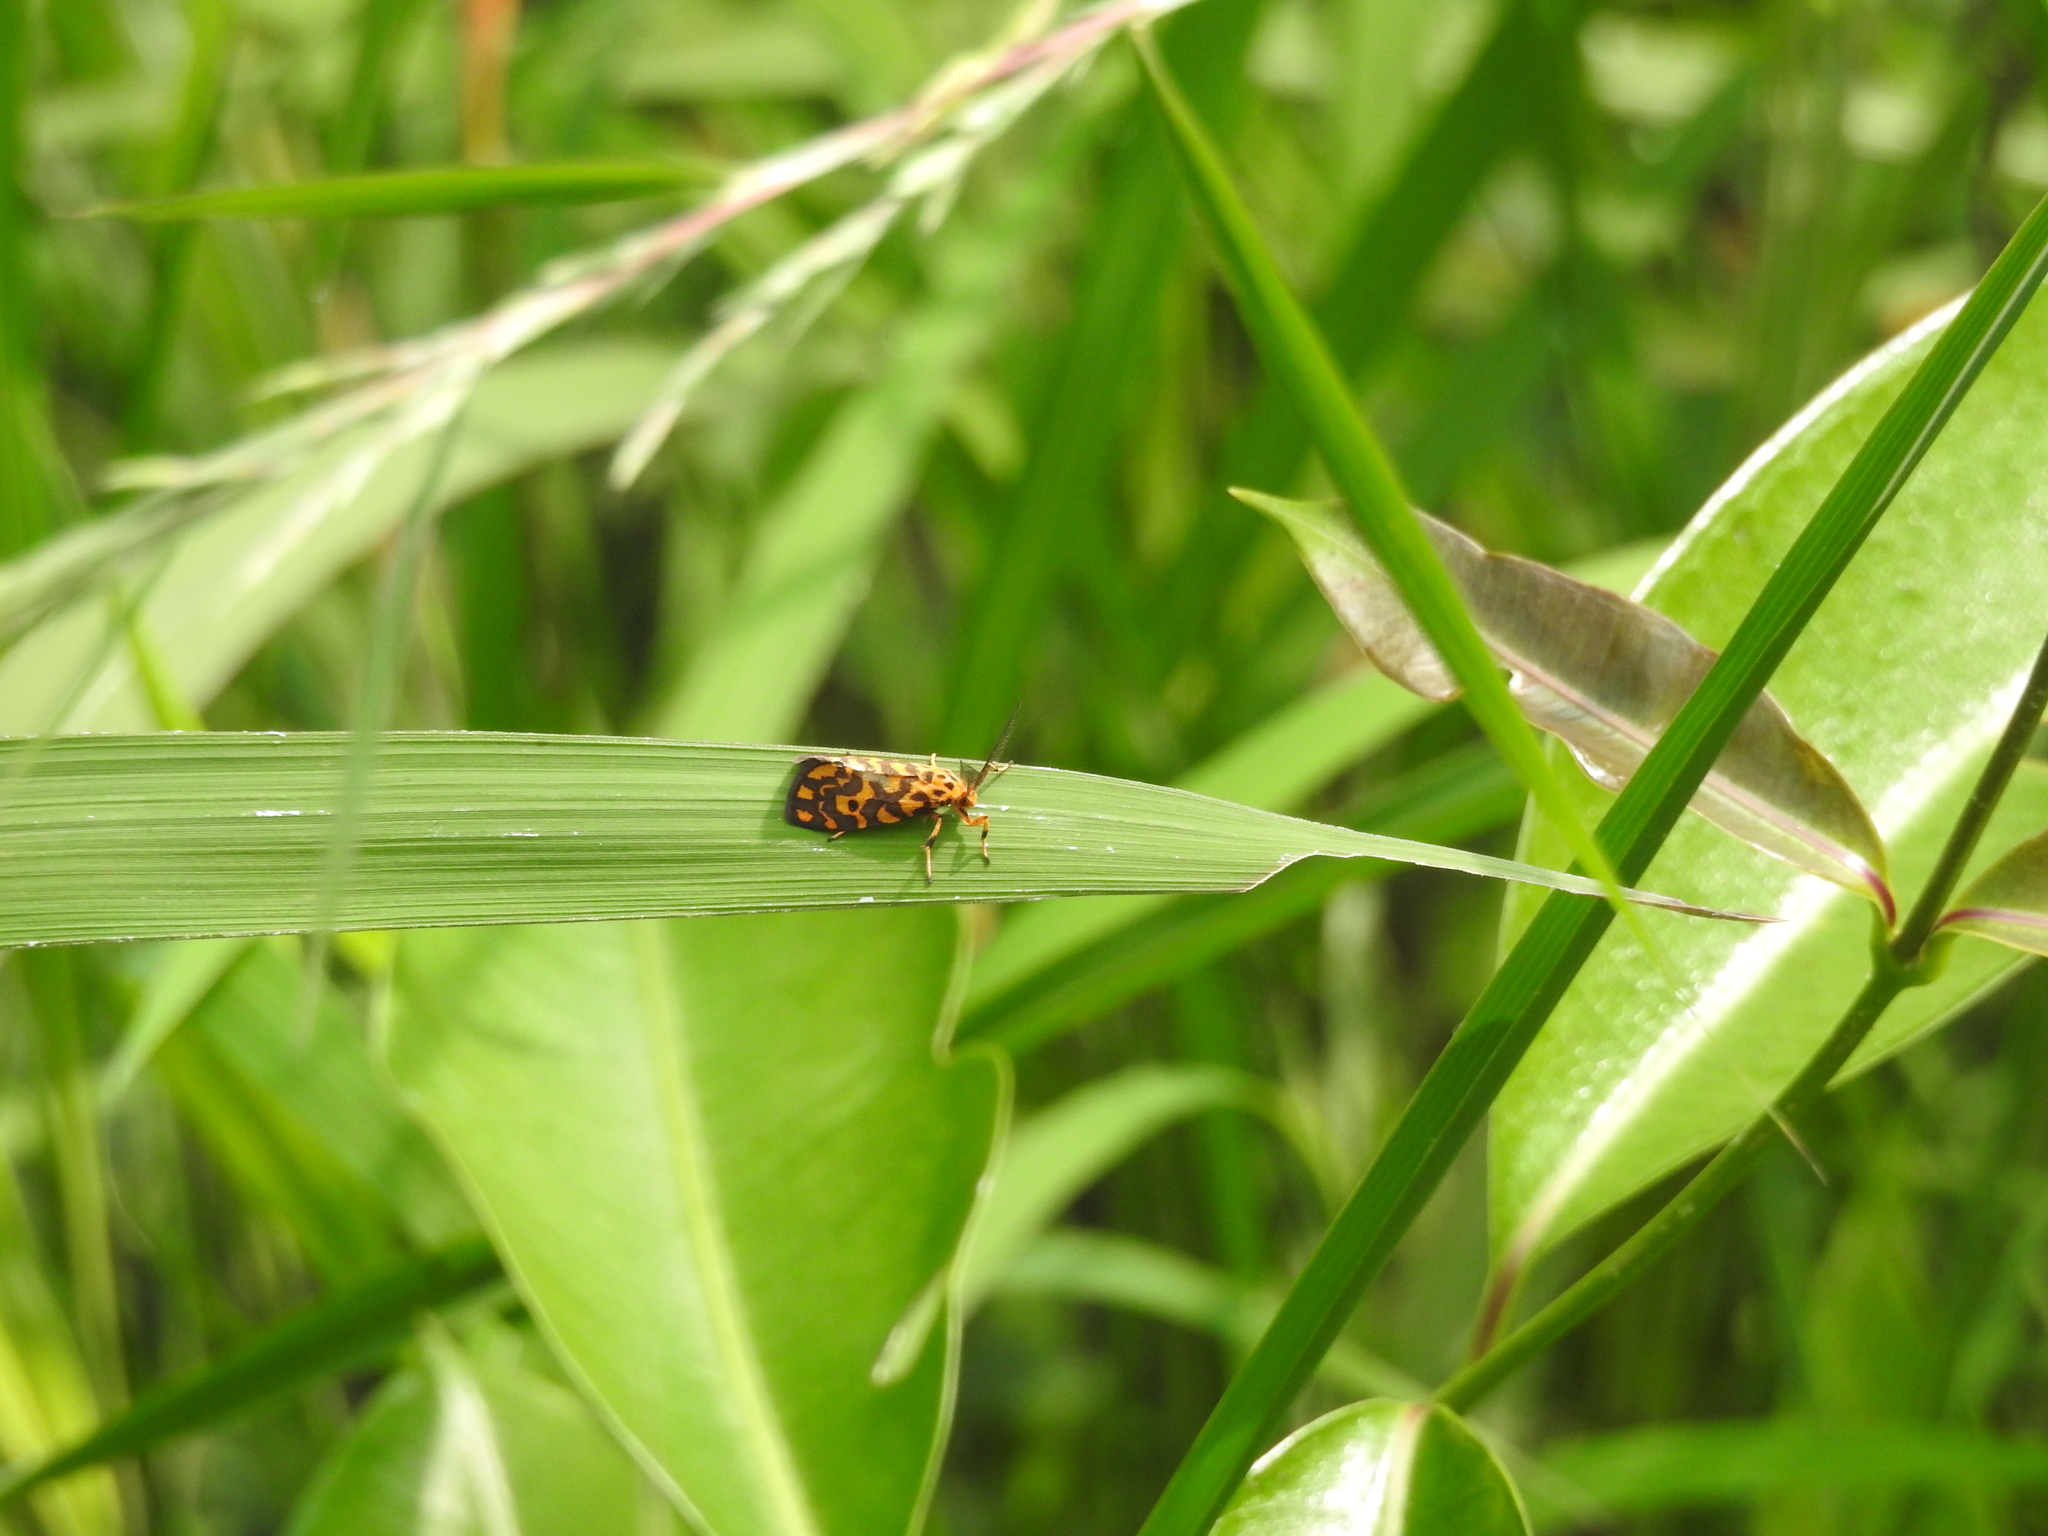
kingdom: Animalia
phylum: Arthropoda
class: Insecta
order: Lepidoptera
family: Erebidae
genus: Nepita
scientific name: Nepita conferta
